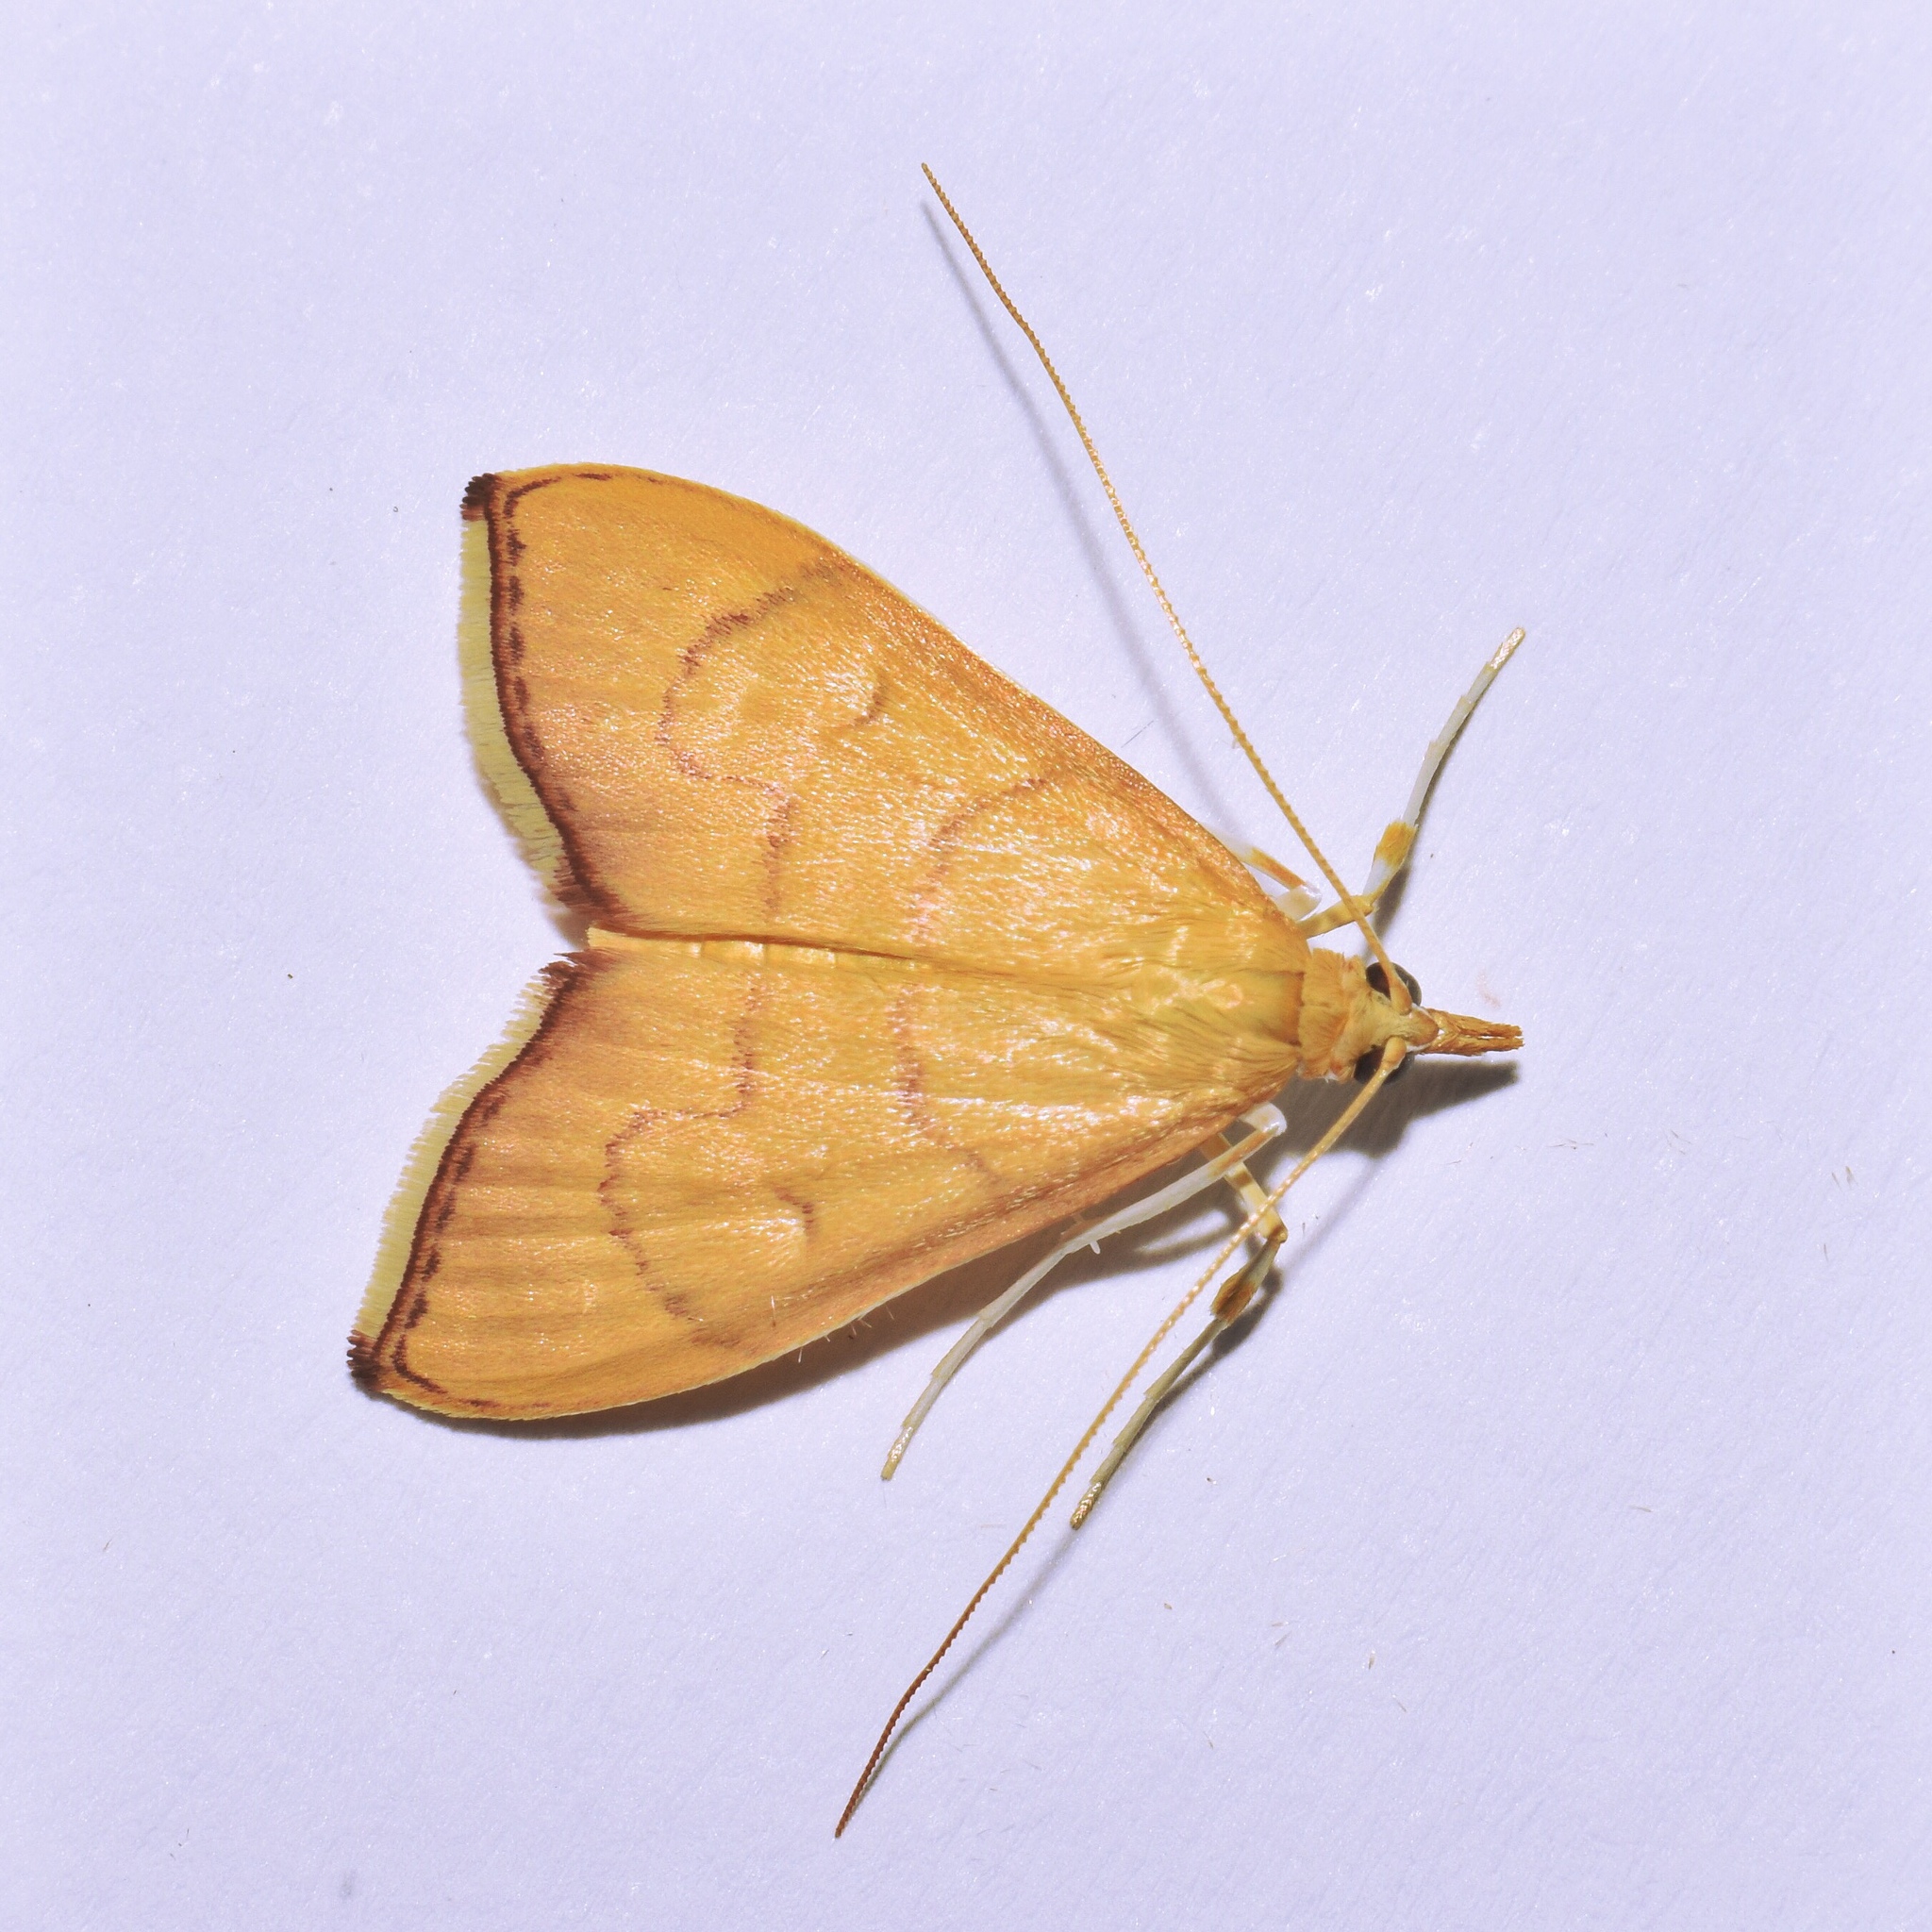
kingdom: Animalia
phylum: Arthropoda
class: Insecta
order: Lepidoptera
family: Crambidae
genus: Mimudea
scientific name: Mimudea prolausalis
